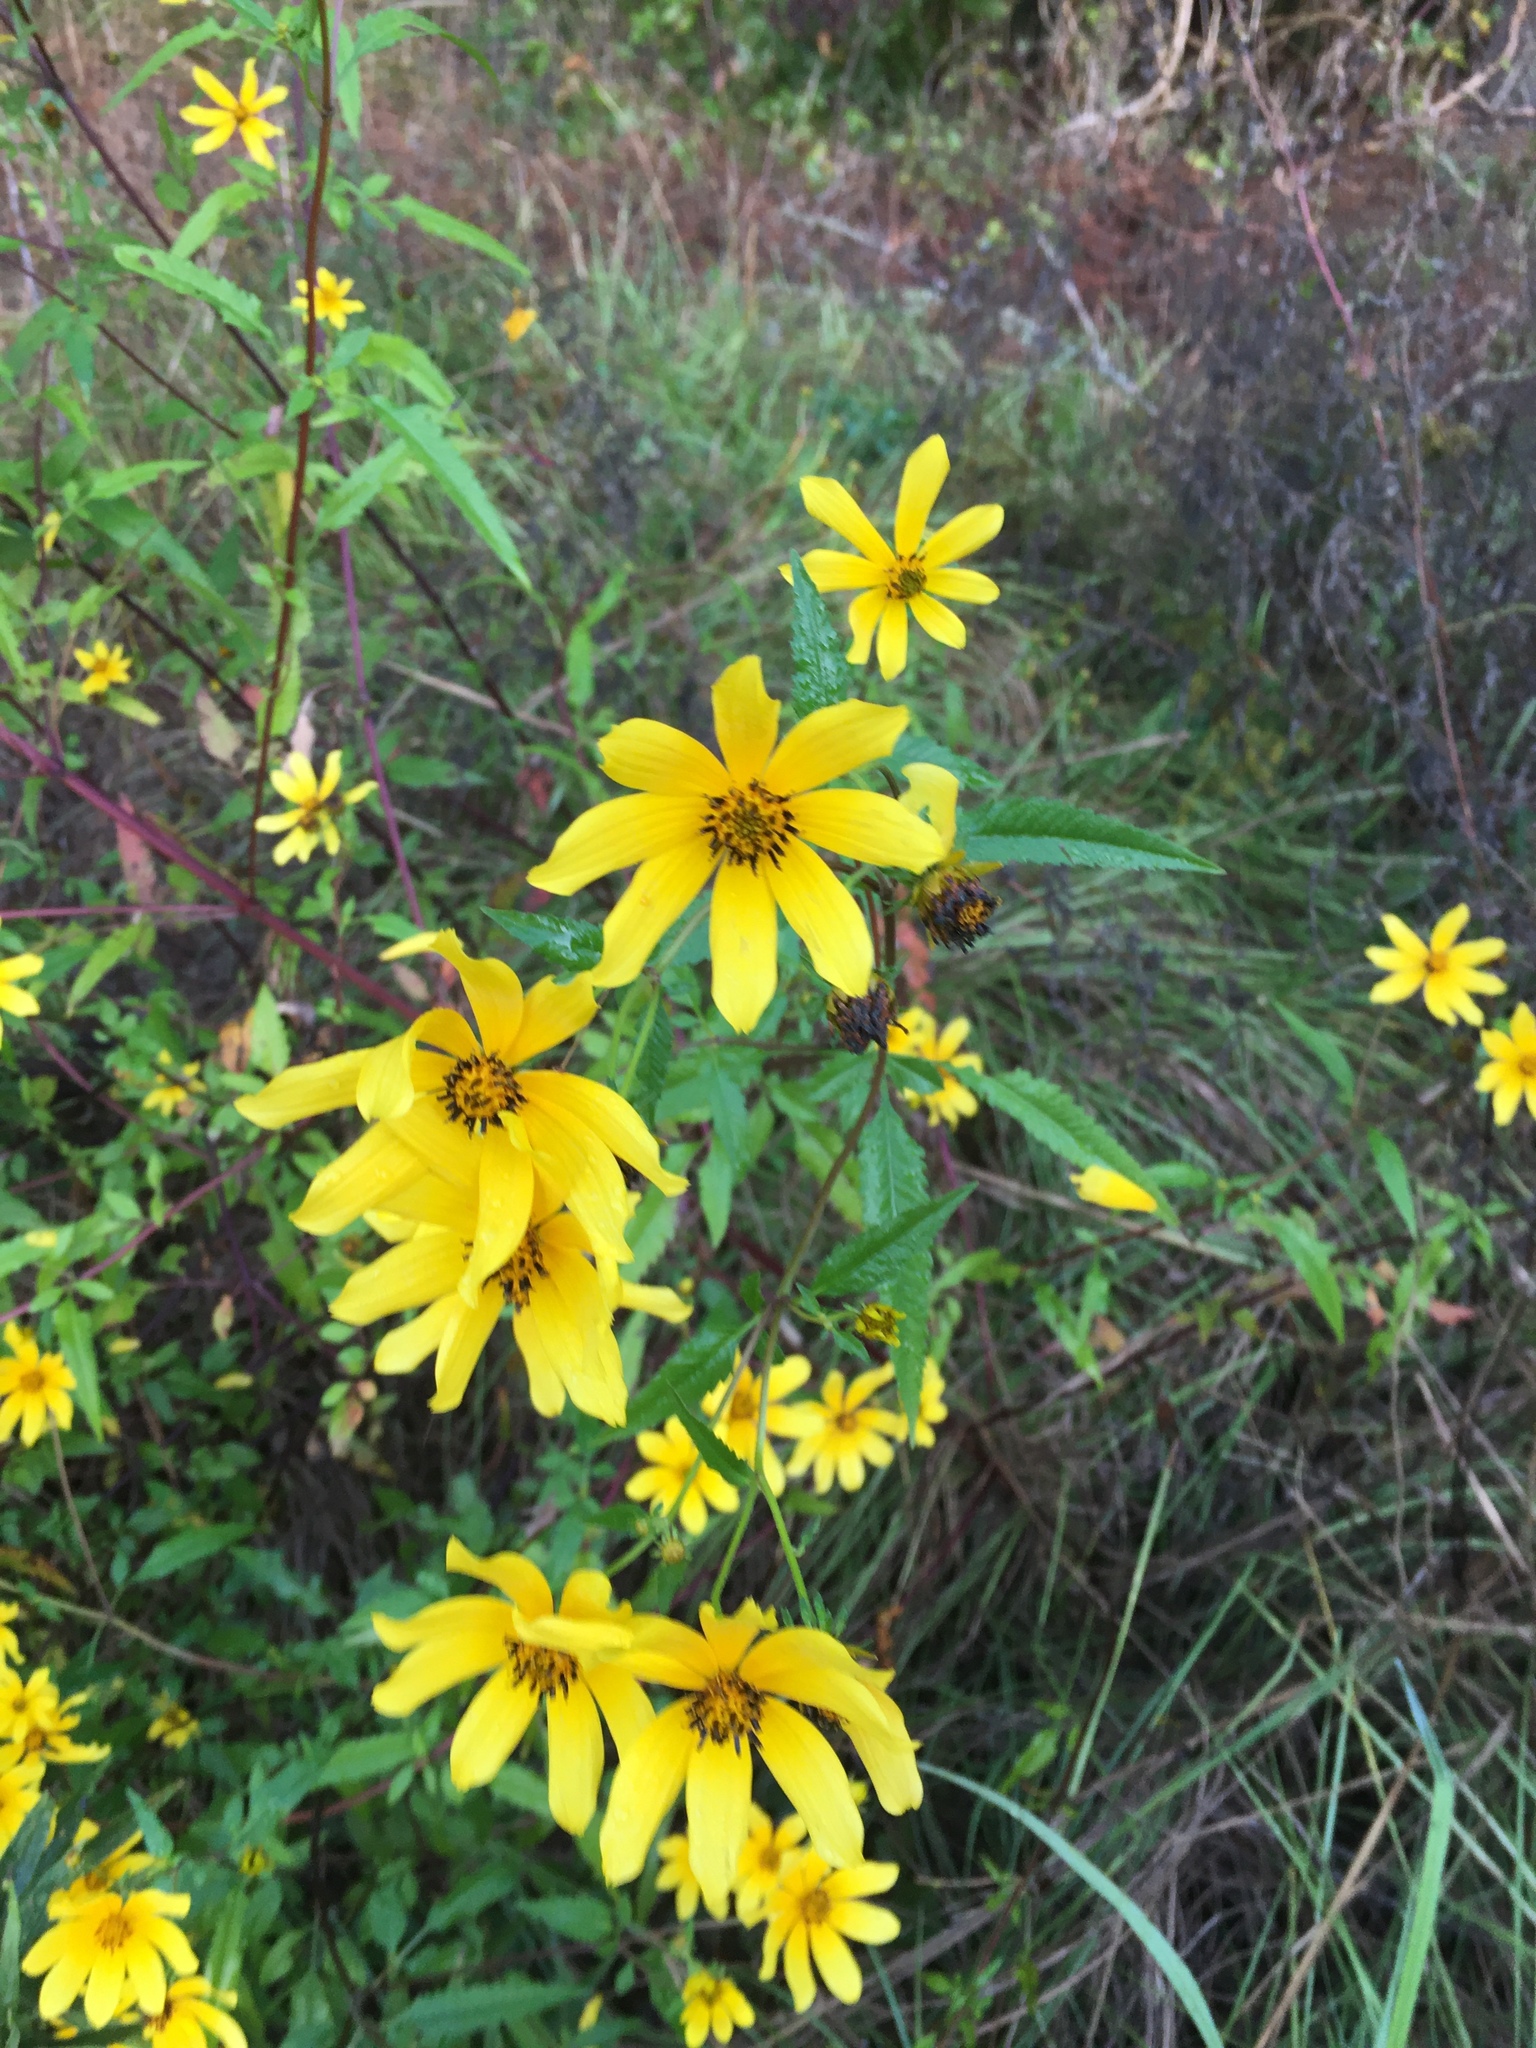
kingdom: Plantae
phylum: Tracheophyta
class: Magnoliopsida
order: Asterales
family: Asteraceae
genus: Bidens
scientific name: Bidens aristosa
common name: Western tickseed
